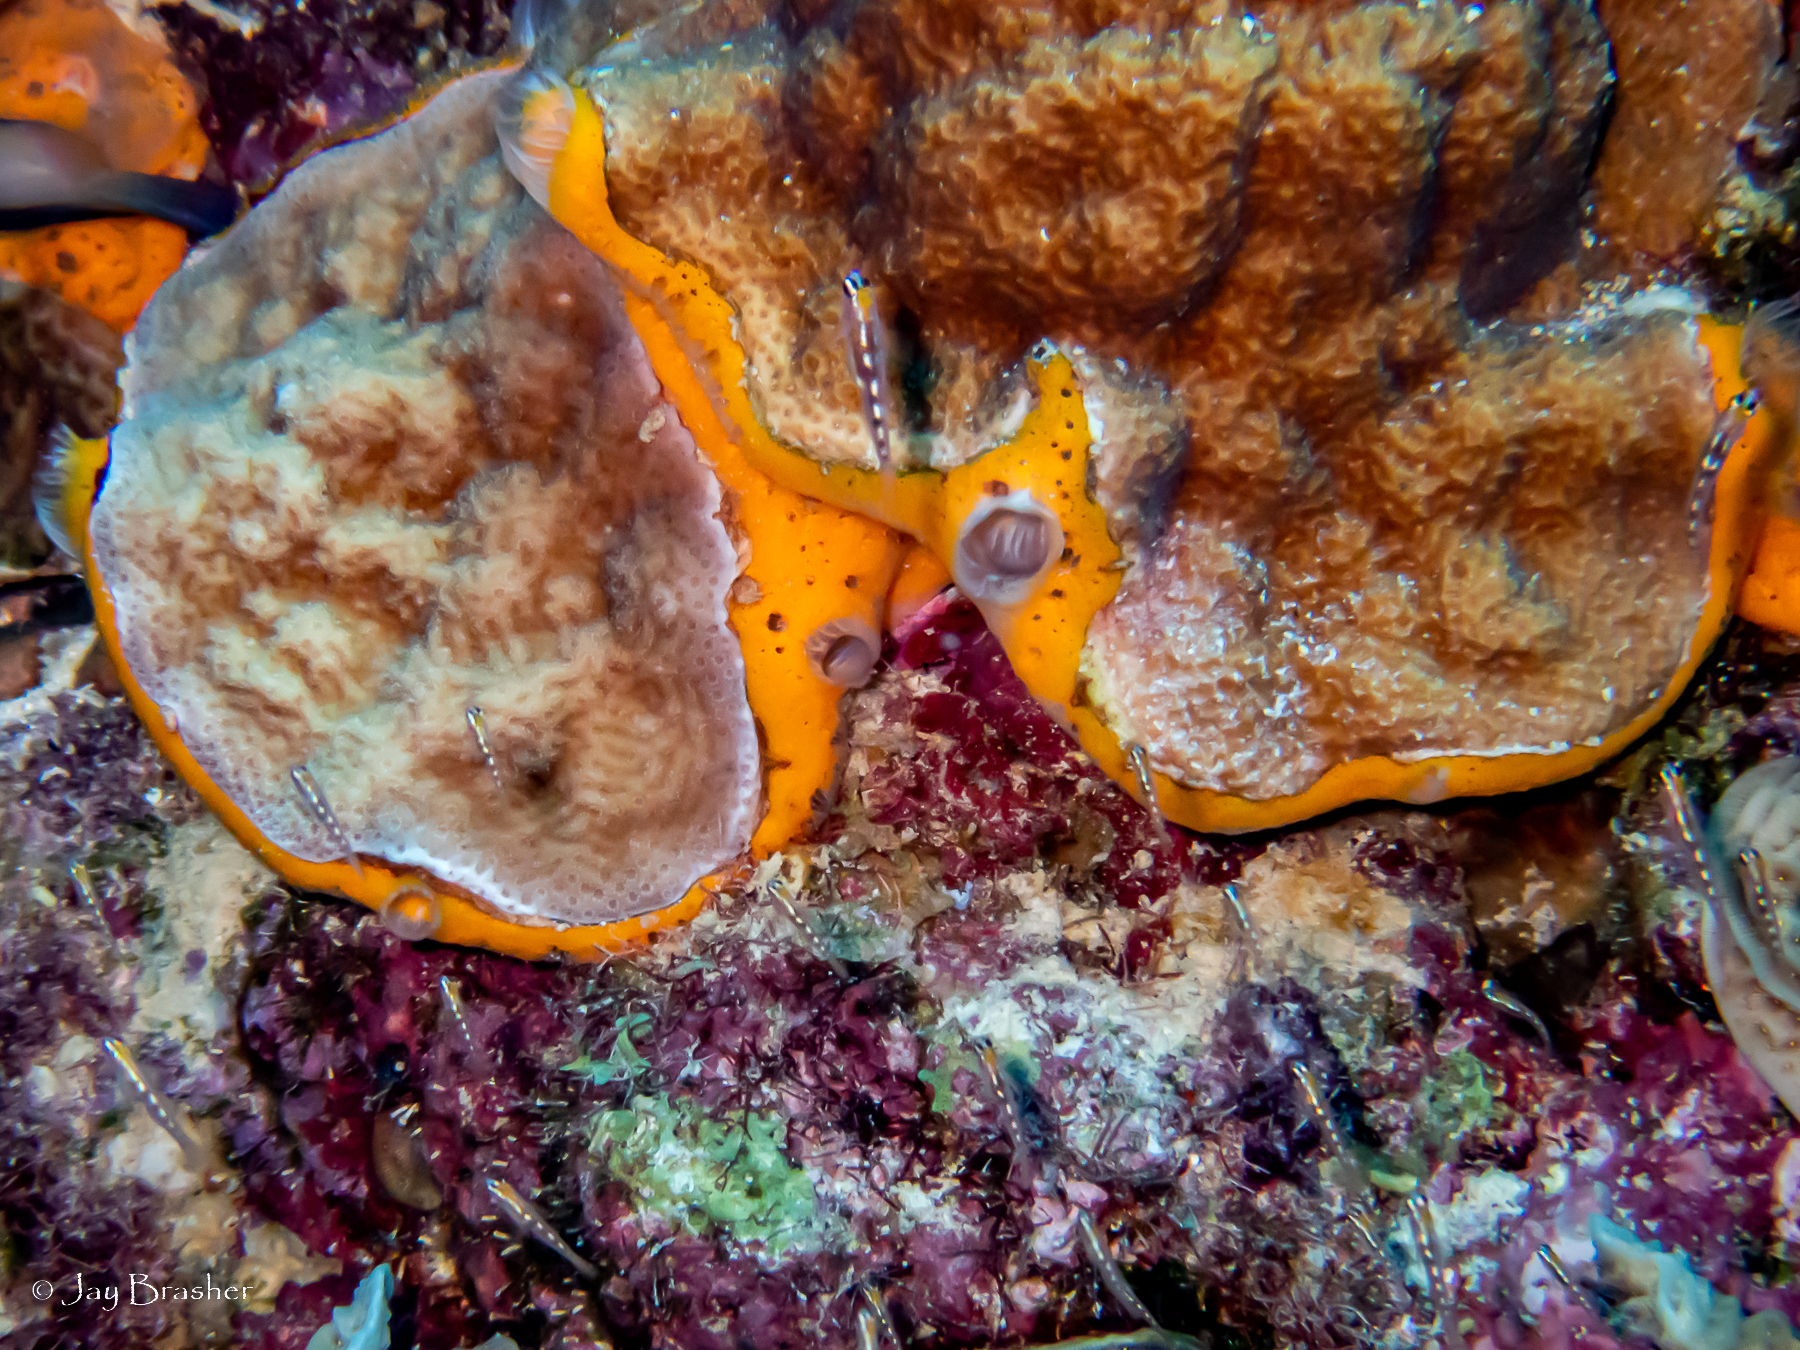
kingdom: Animalia
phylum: Porifera
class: Demospongiae
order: Poecilosclerida
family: Mycalidae
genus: Mycale
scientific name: Mycale laevis
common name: Orange icing sponge
